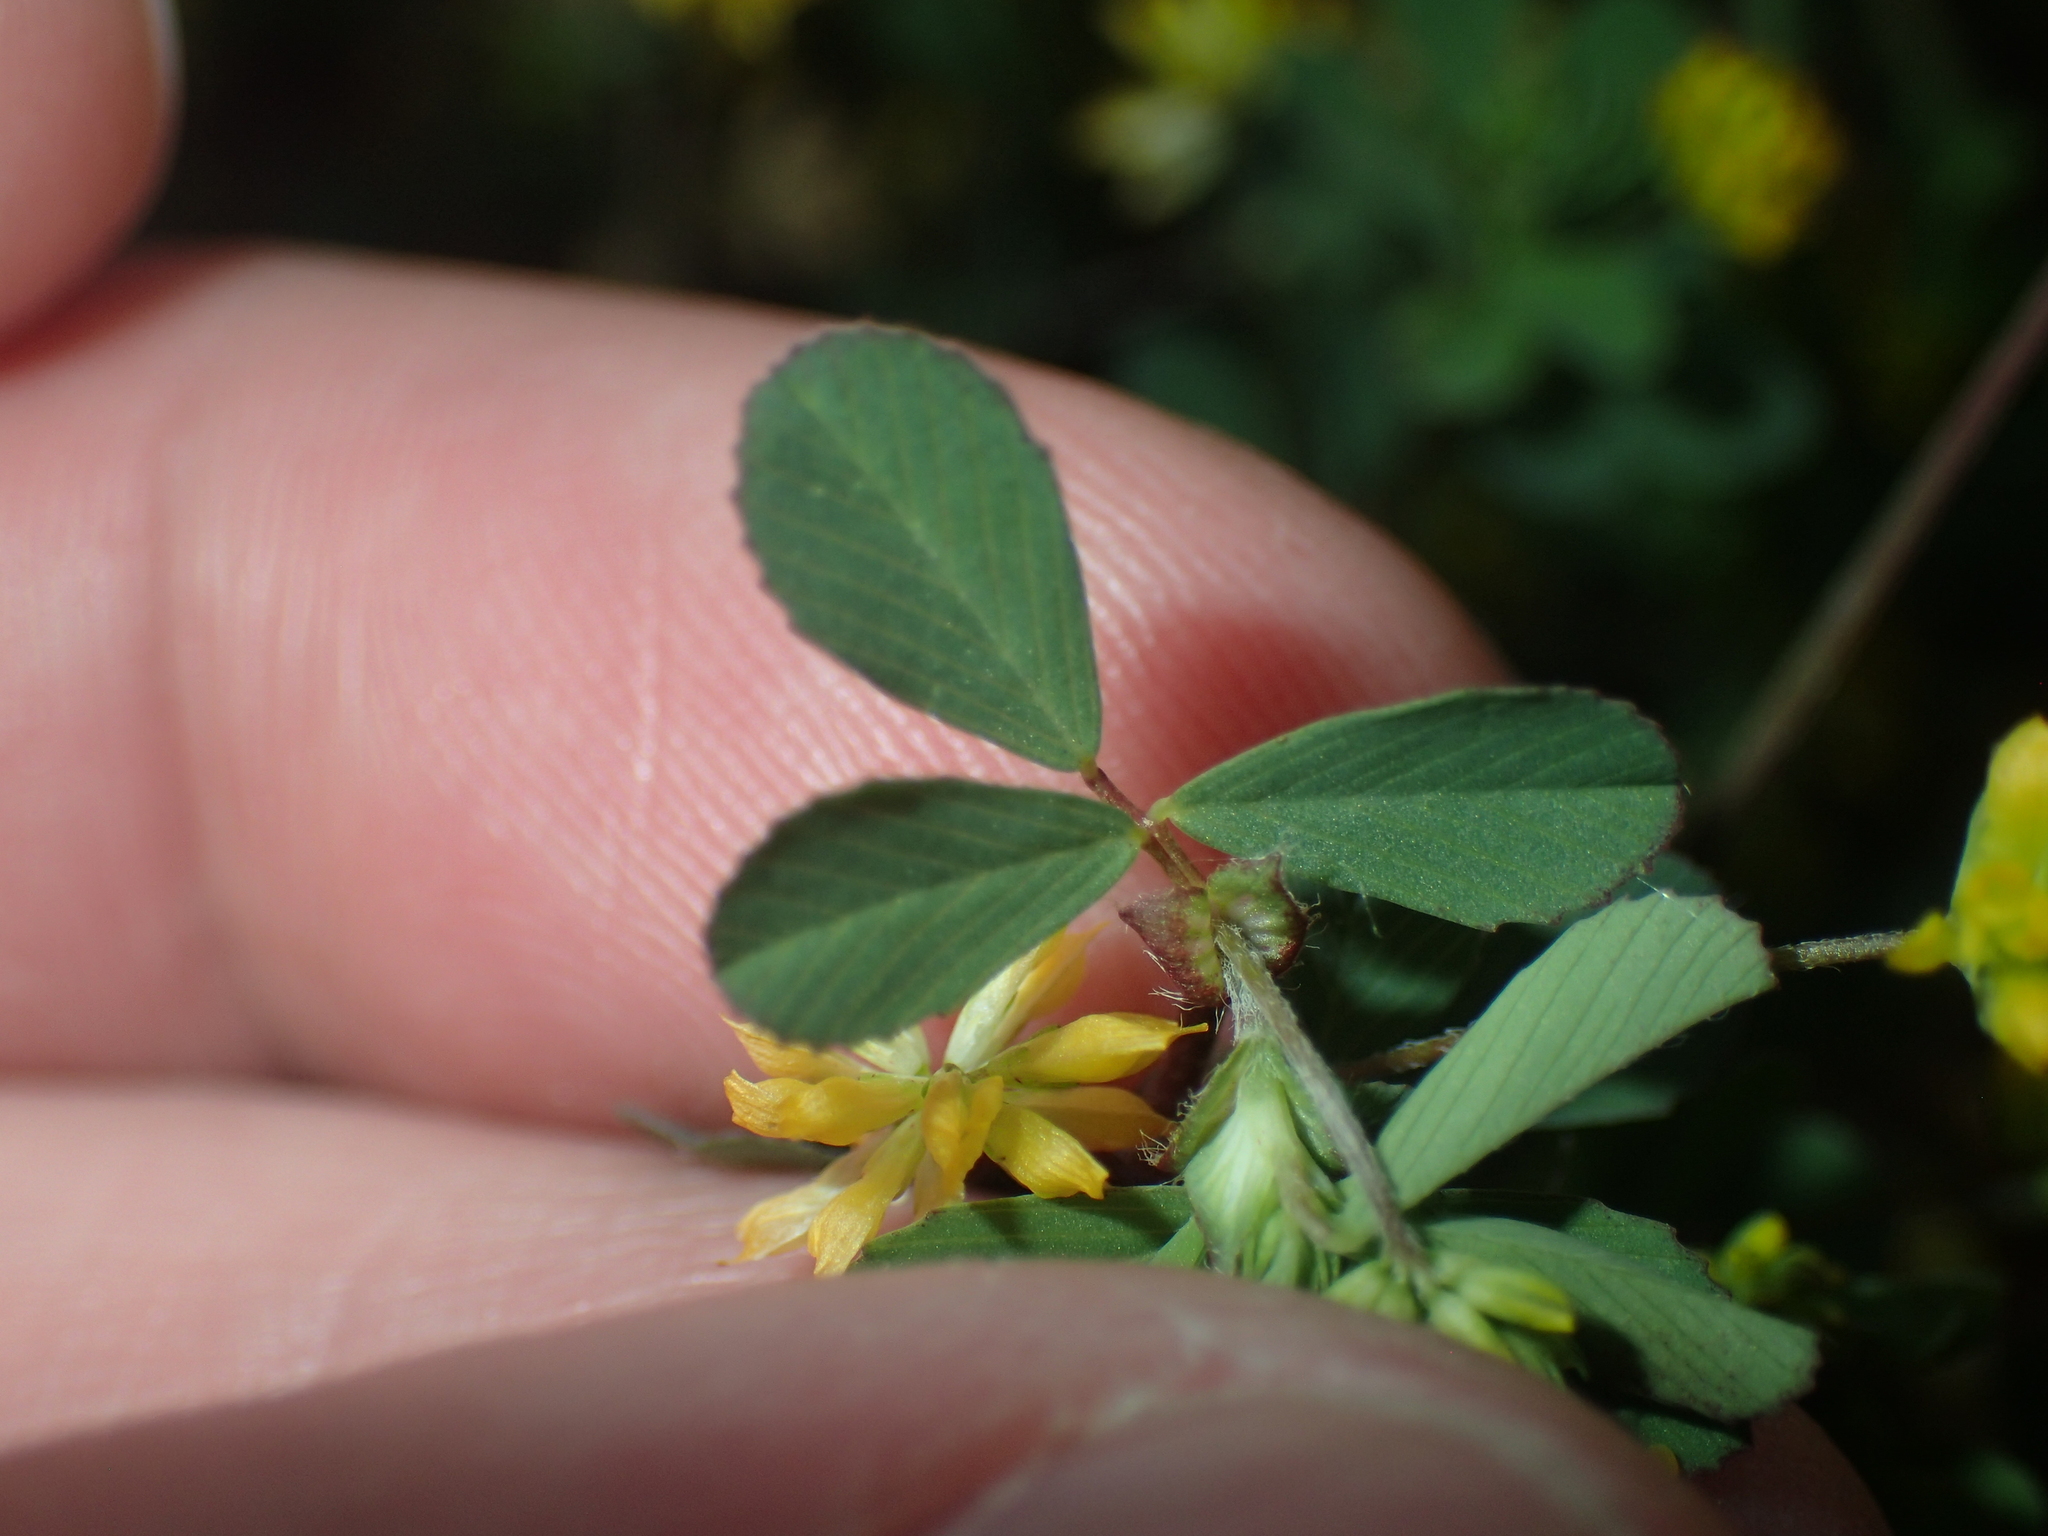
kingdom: Plantae
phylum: Tracheophyta
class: Magnoliopsida
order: Fabales
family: Fabaceae
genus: Trifolium
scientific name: Trifolium dubium
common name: Suckling clover
